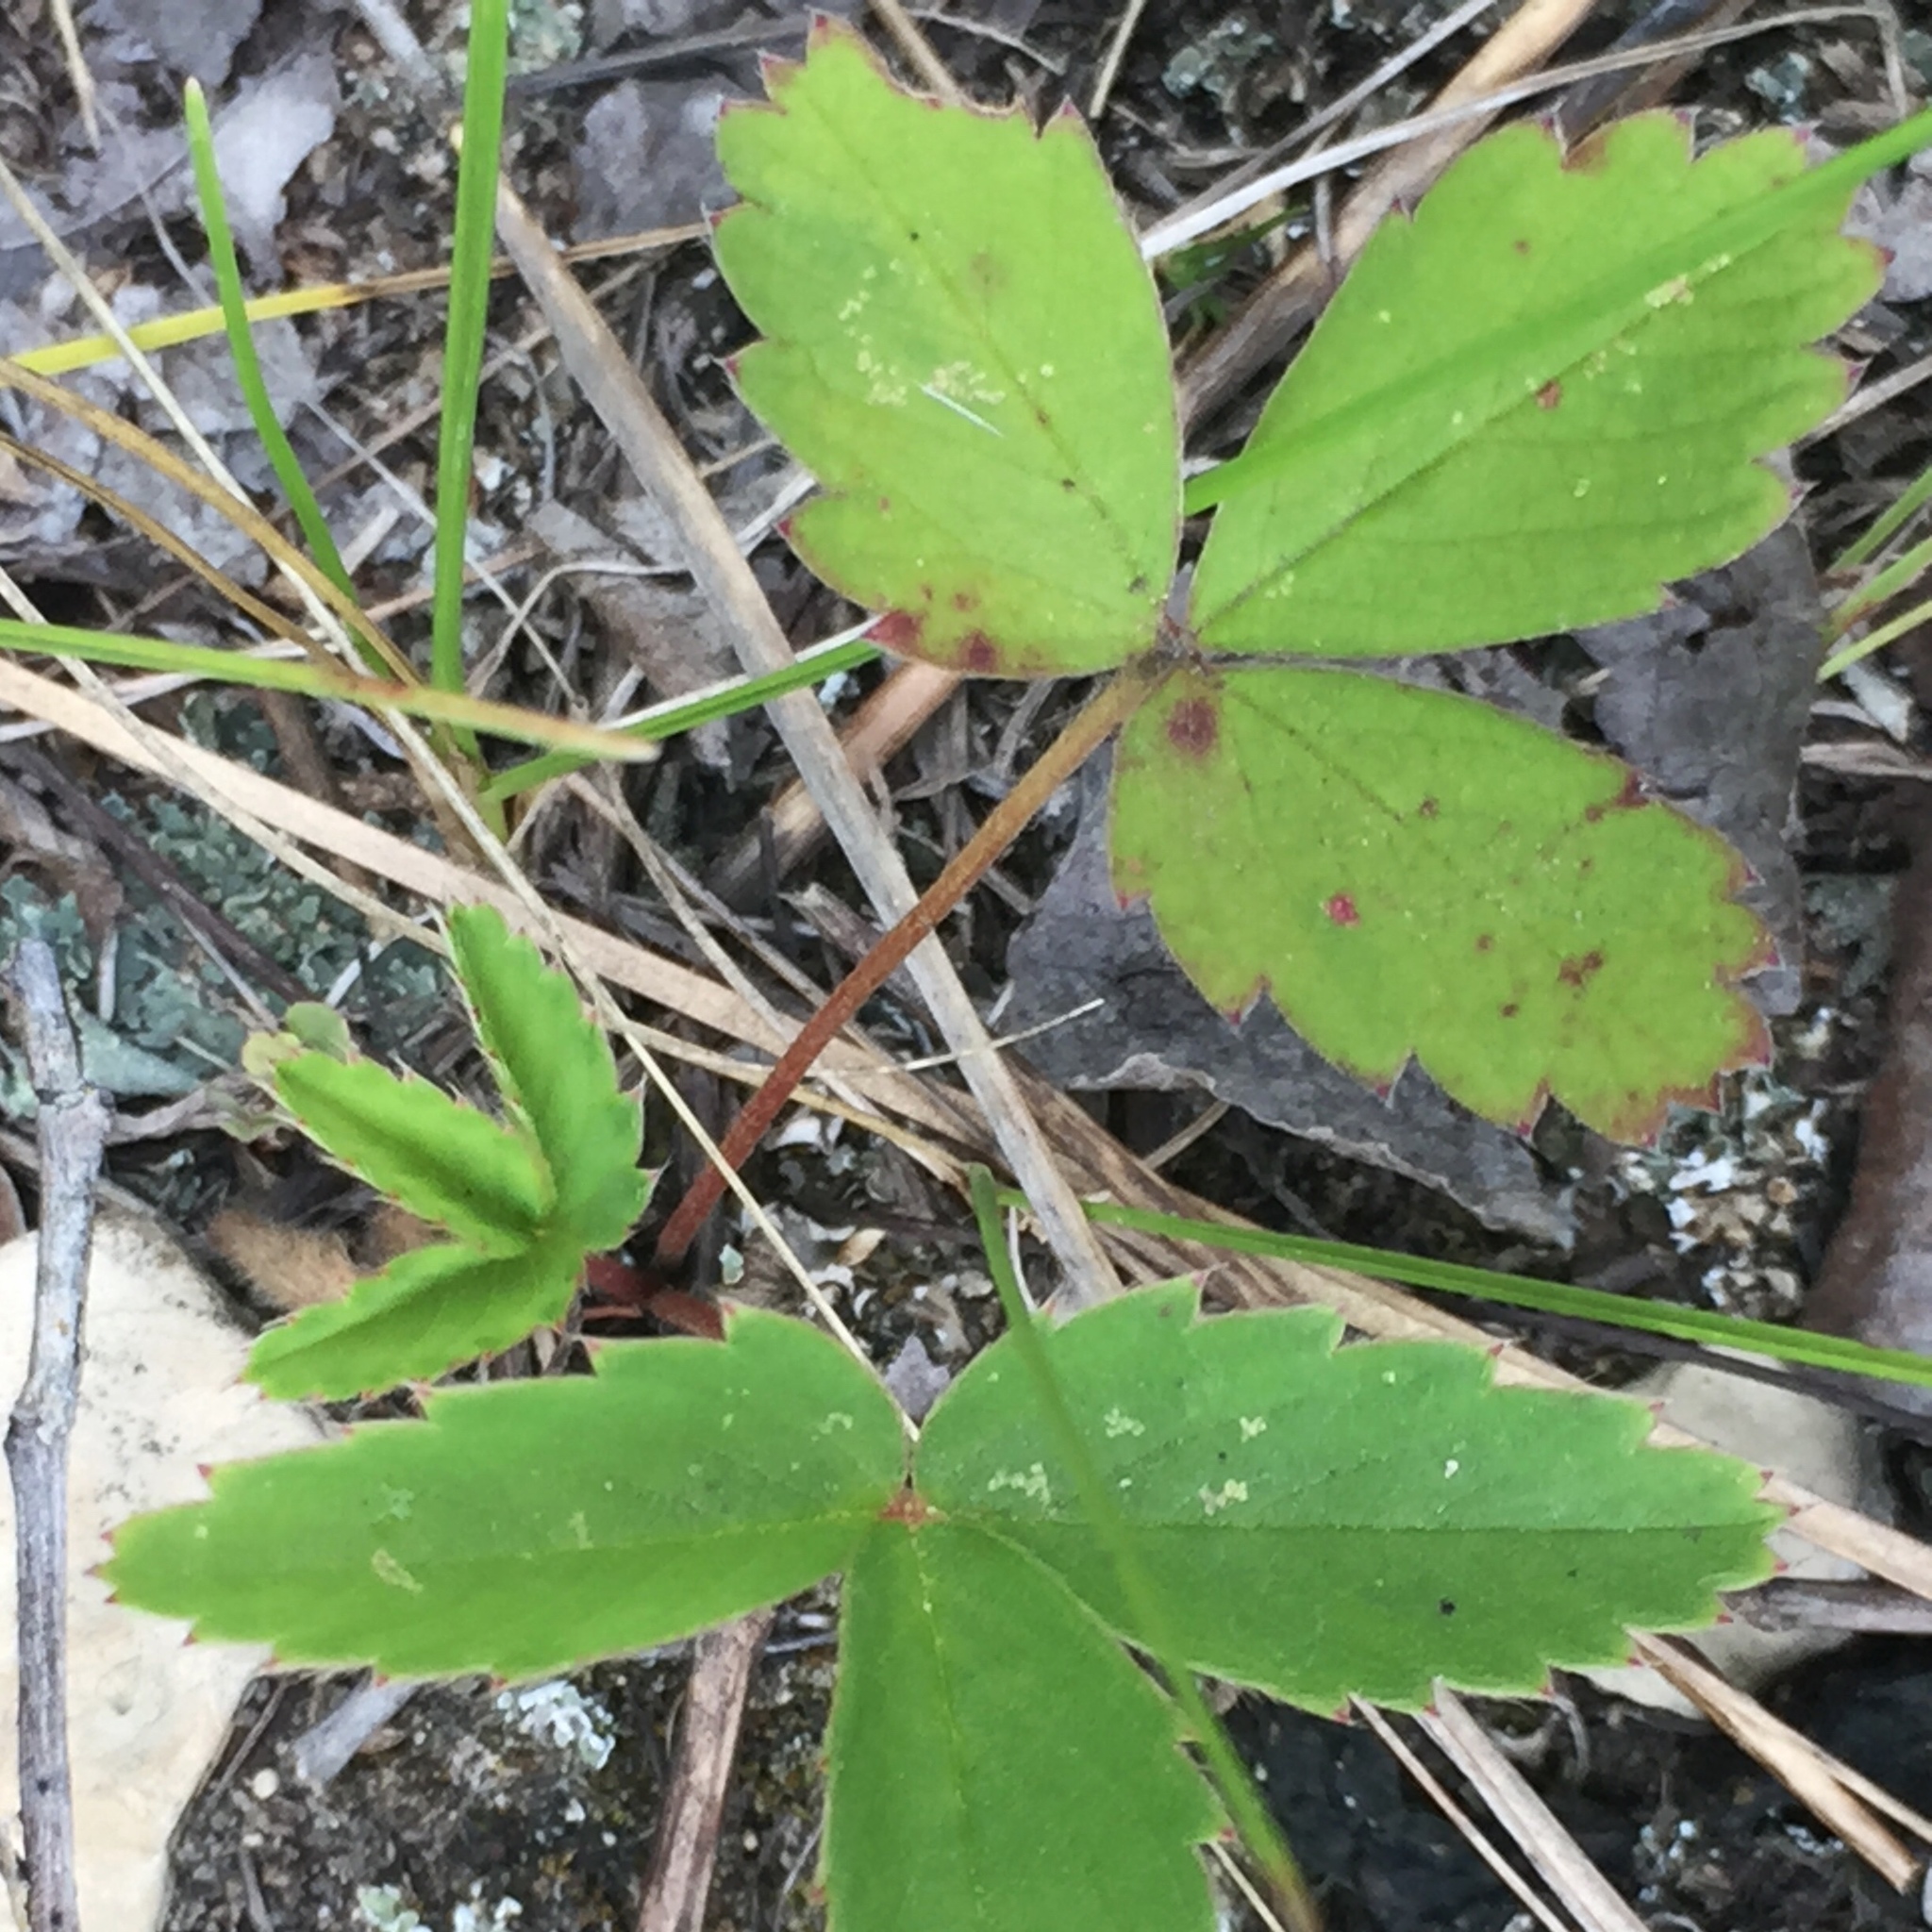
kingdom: Plantae
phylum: Tracheophyta
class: Magnoliopsida
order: Rosales
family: Rosaceae
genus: Fragaria
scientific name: Fragaria virginiana
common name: Thickleaved wild strawberry
